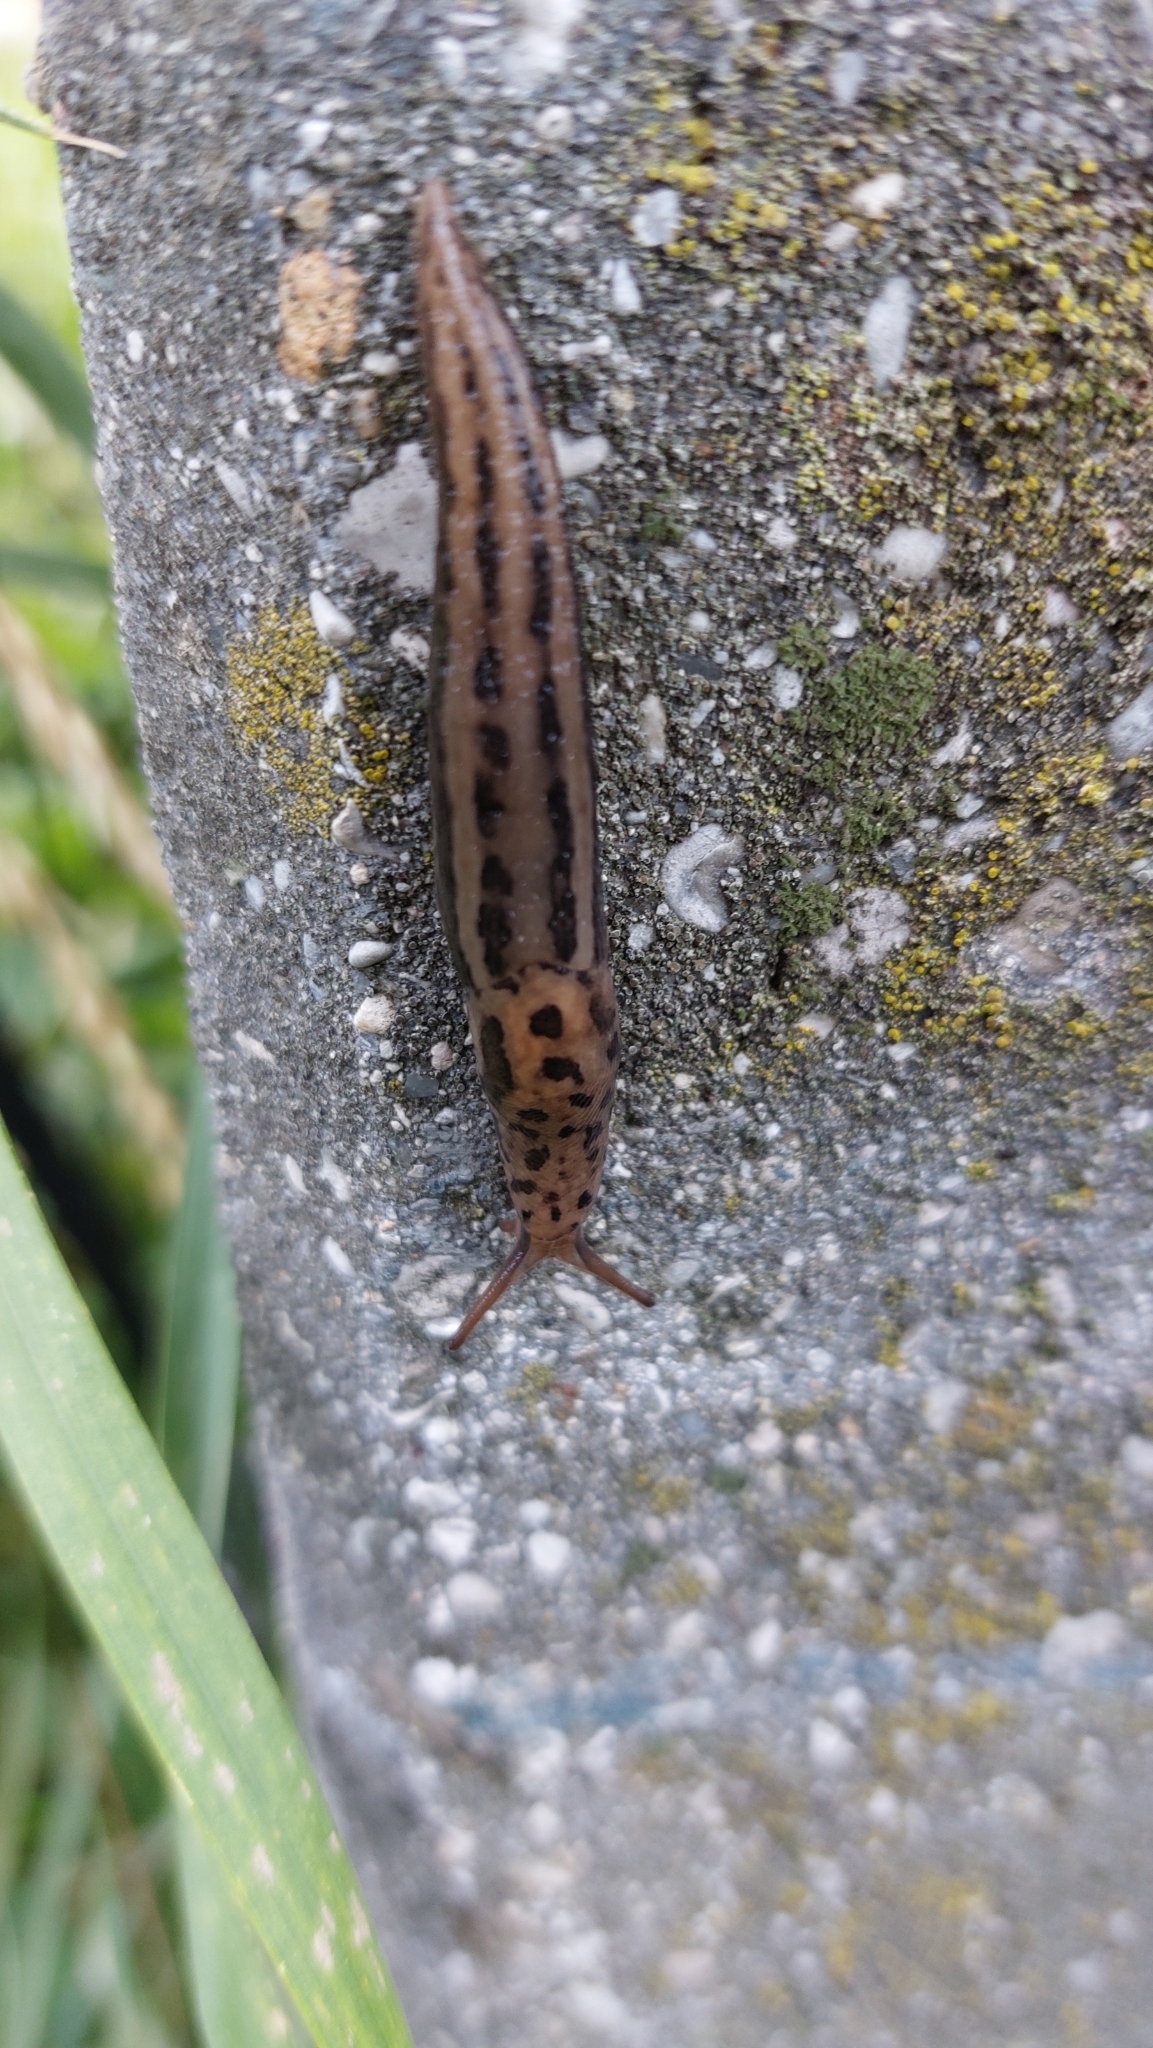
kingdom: Animalia
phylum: Mollusca
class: Gastropoda
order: Stylommatophora
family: Limacidae
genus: Limax
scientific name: Limax maximus
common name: Great grey slug
